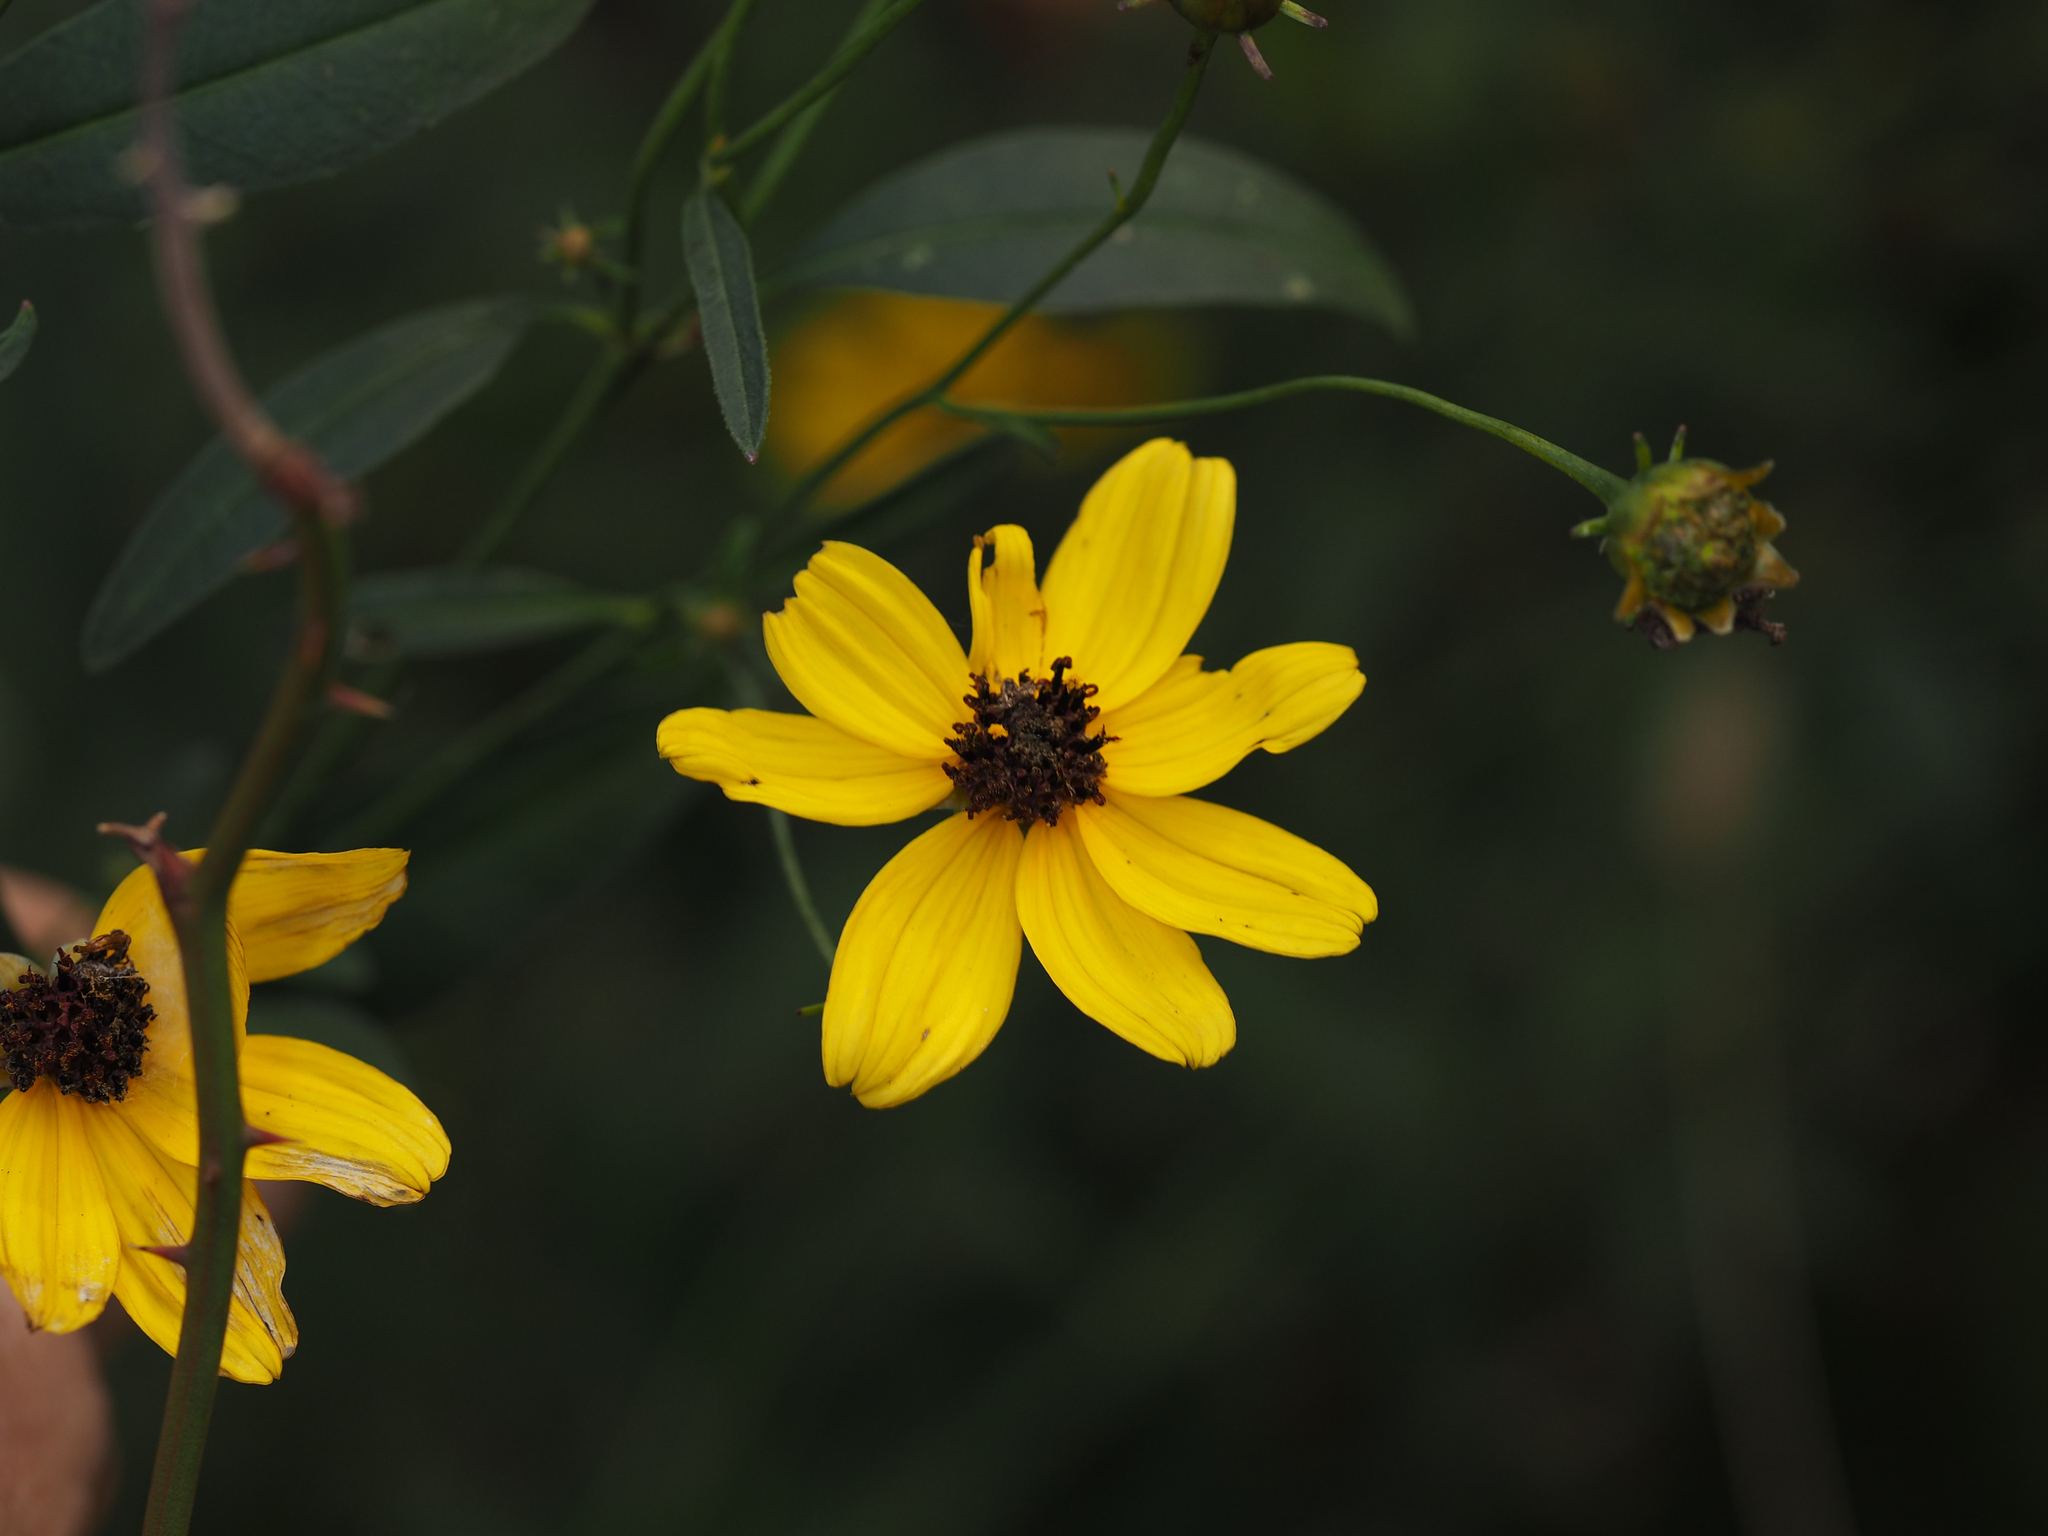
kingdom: Plantae
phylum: Tracheophyta
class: Magnoliopsida
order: Asterales
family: Asteraceae
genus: Coreopsis
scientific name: Coreopsis tripteris
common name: Tall coreopsis
